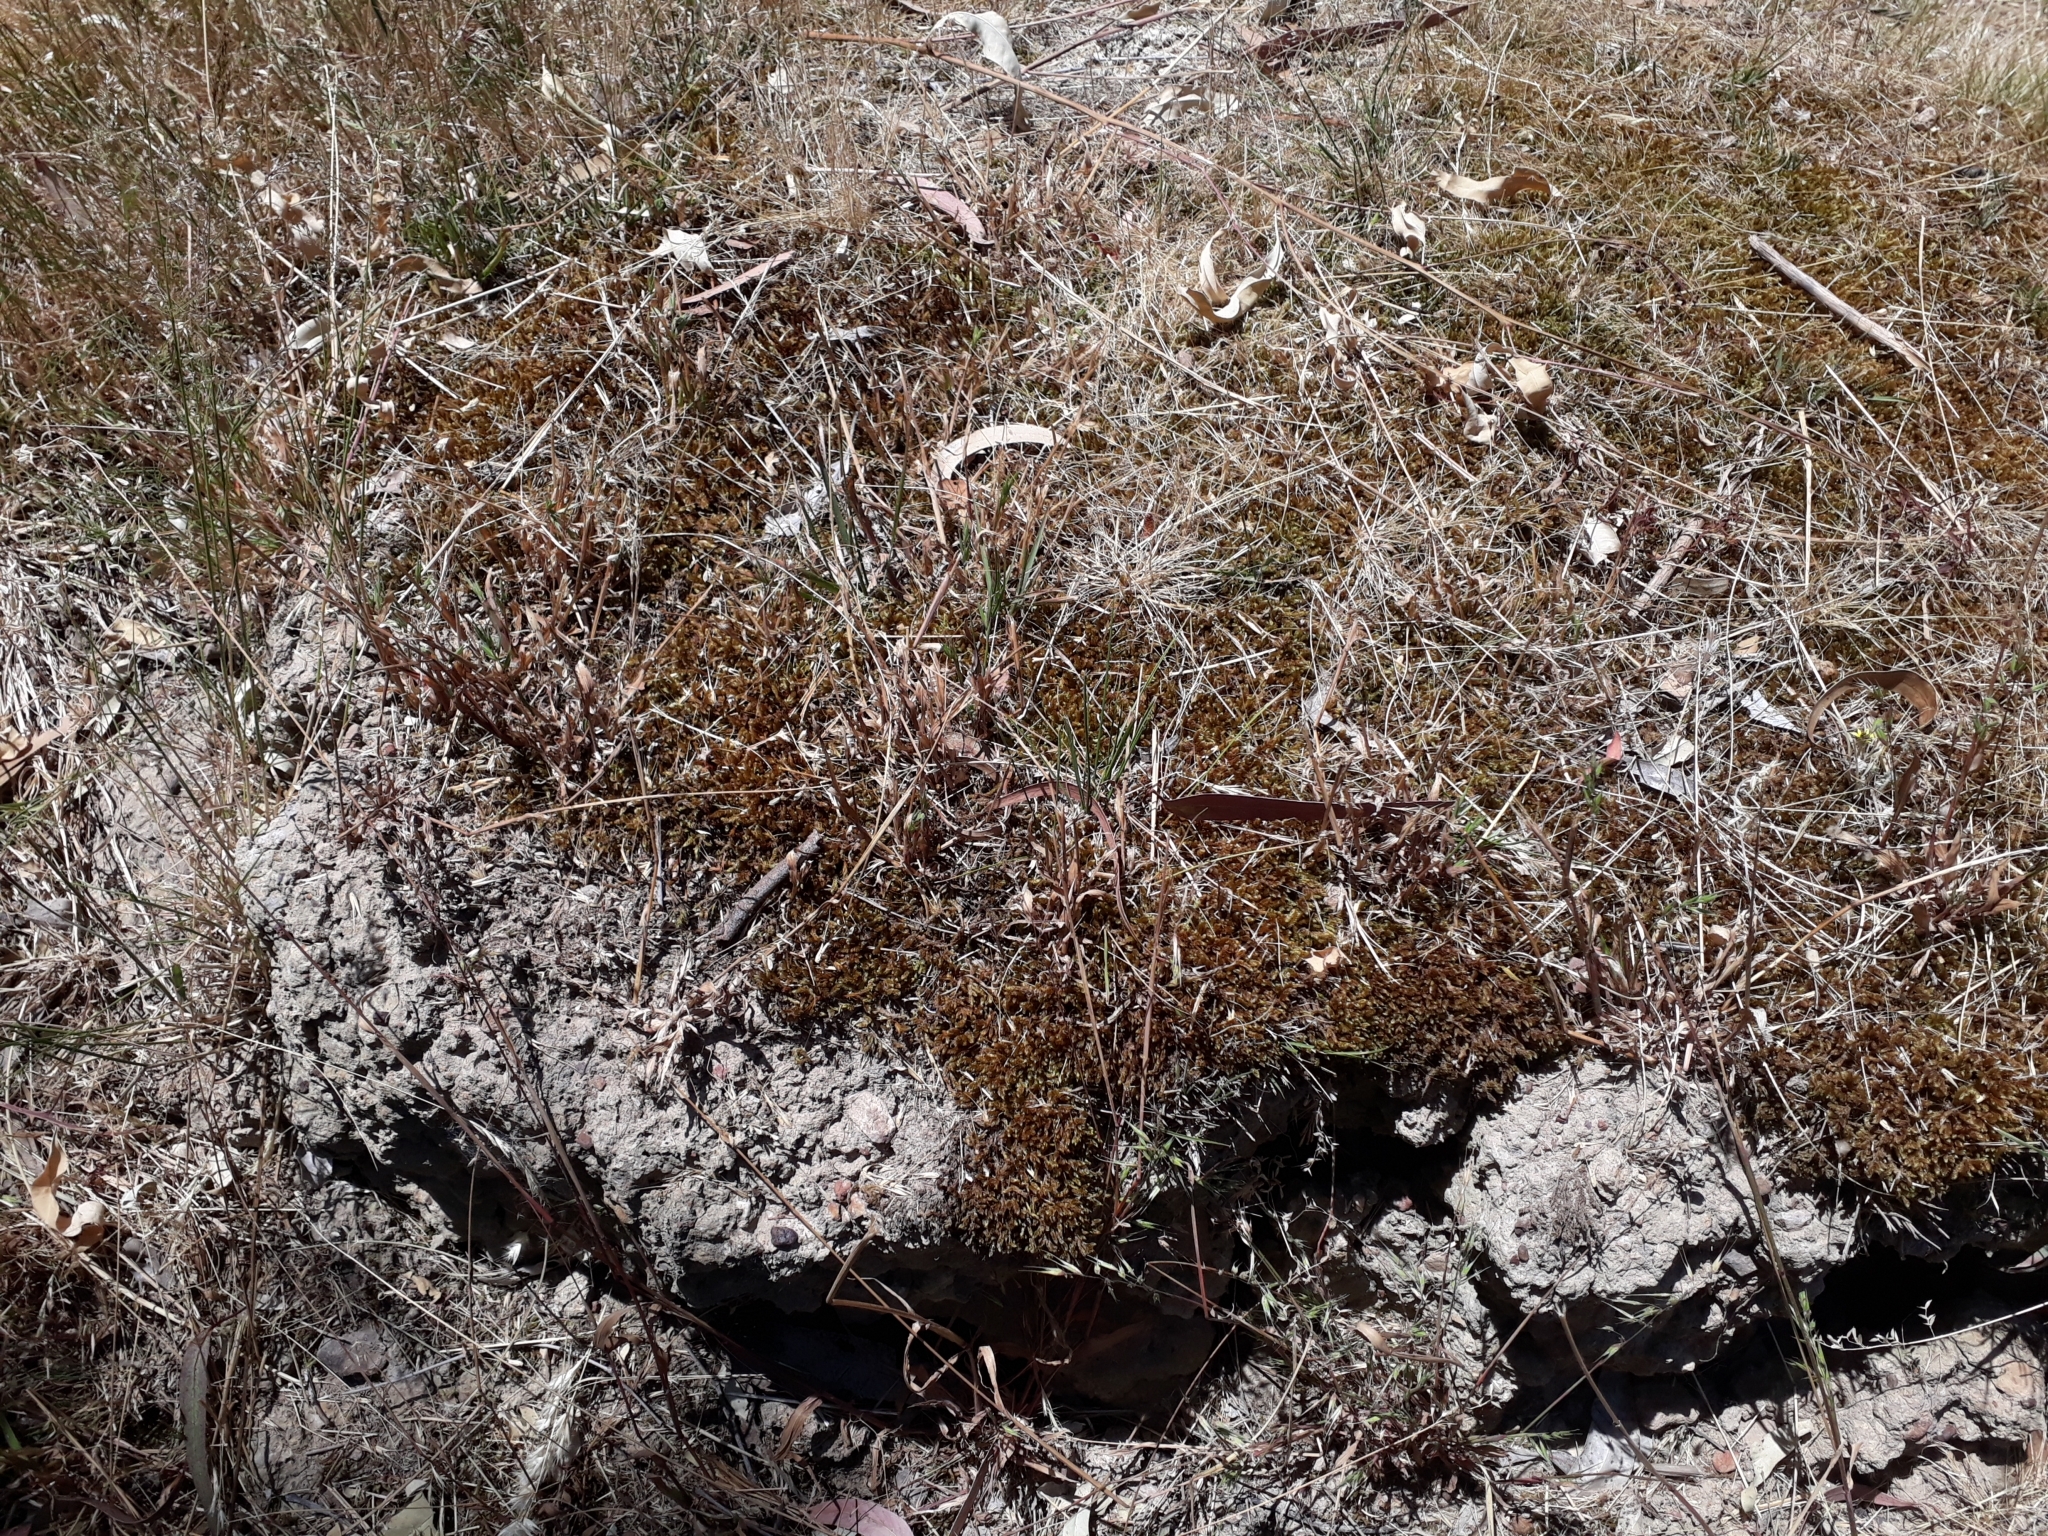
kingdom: Plantae
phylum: Bryophyta
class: Bryopsida
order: Hypnales
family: Hypnaceae
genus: Hypnum
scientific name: Hypnum cupressiforme
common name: Cypress-leaved plait-moss
